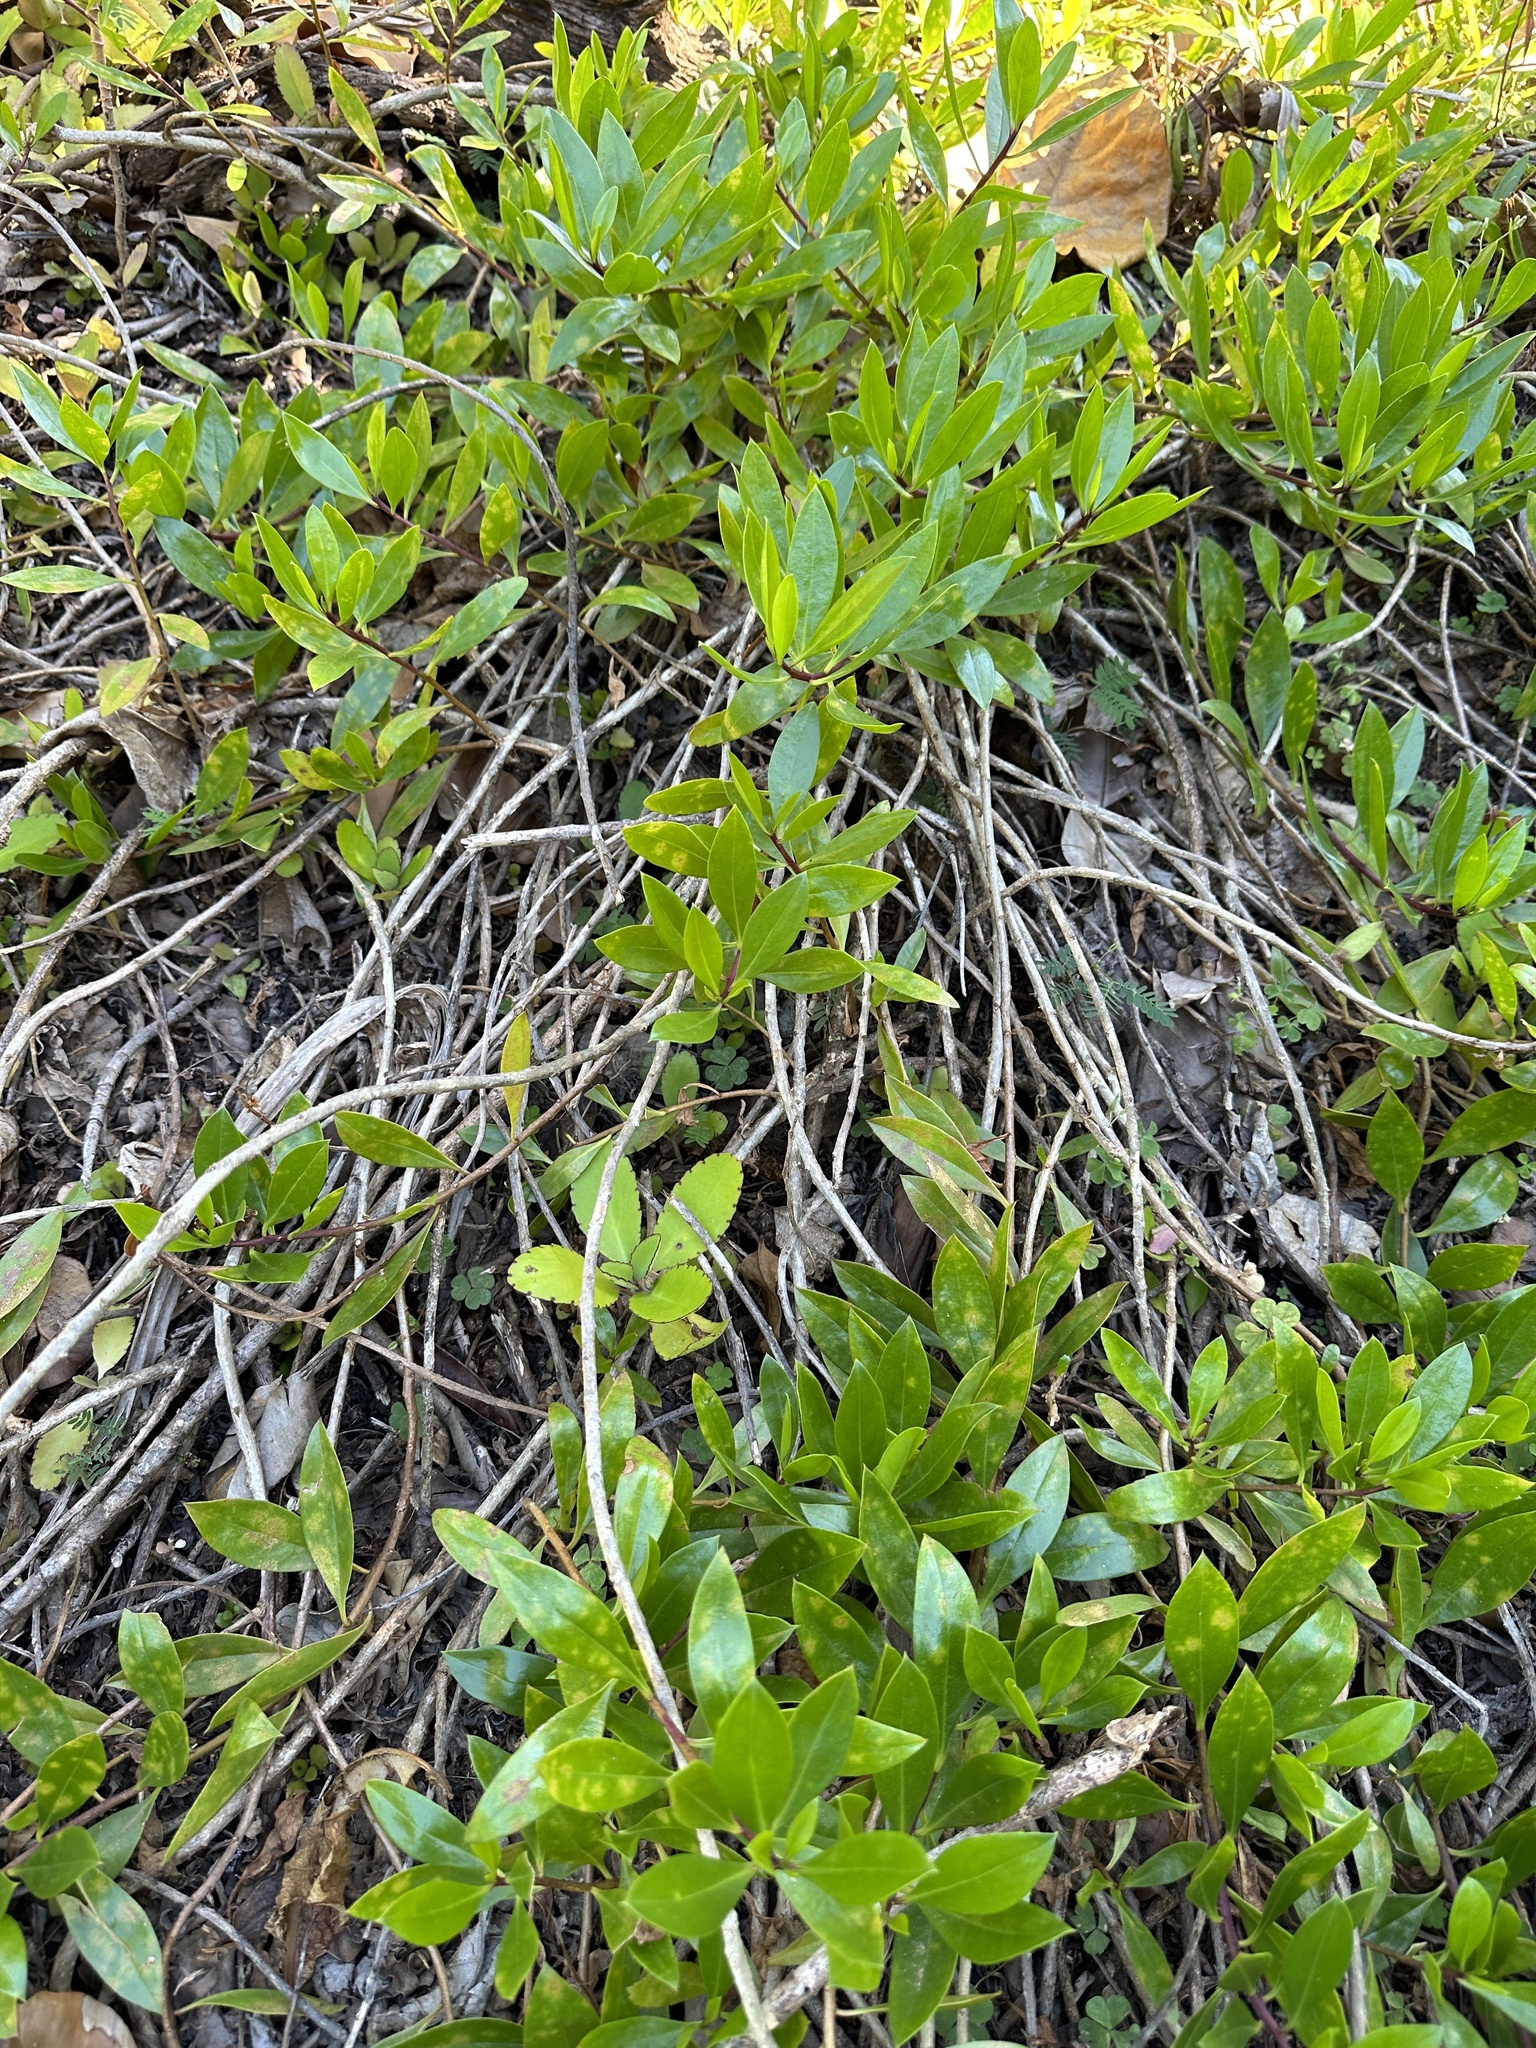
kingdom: Plantae
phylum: Tracheophyta
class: Magnoliopsida
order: Lamiales
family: Scrophulariaceae
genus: Myoporum
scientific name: Myoporum boninense
